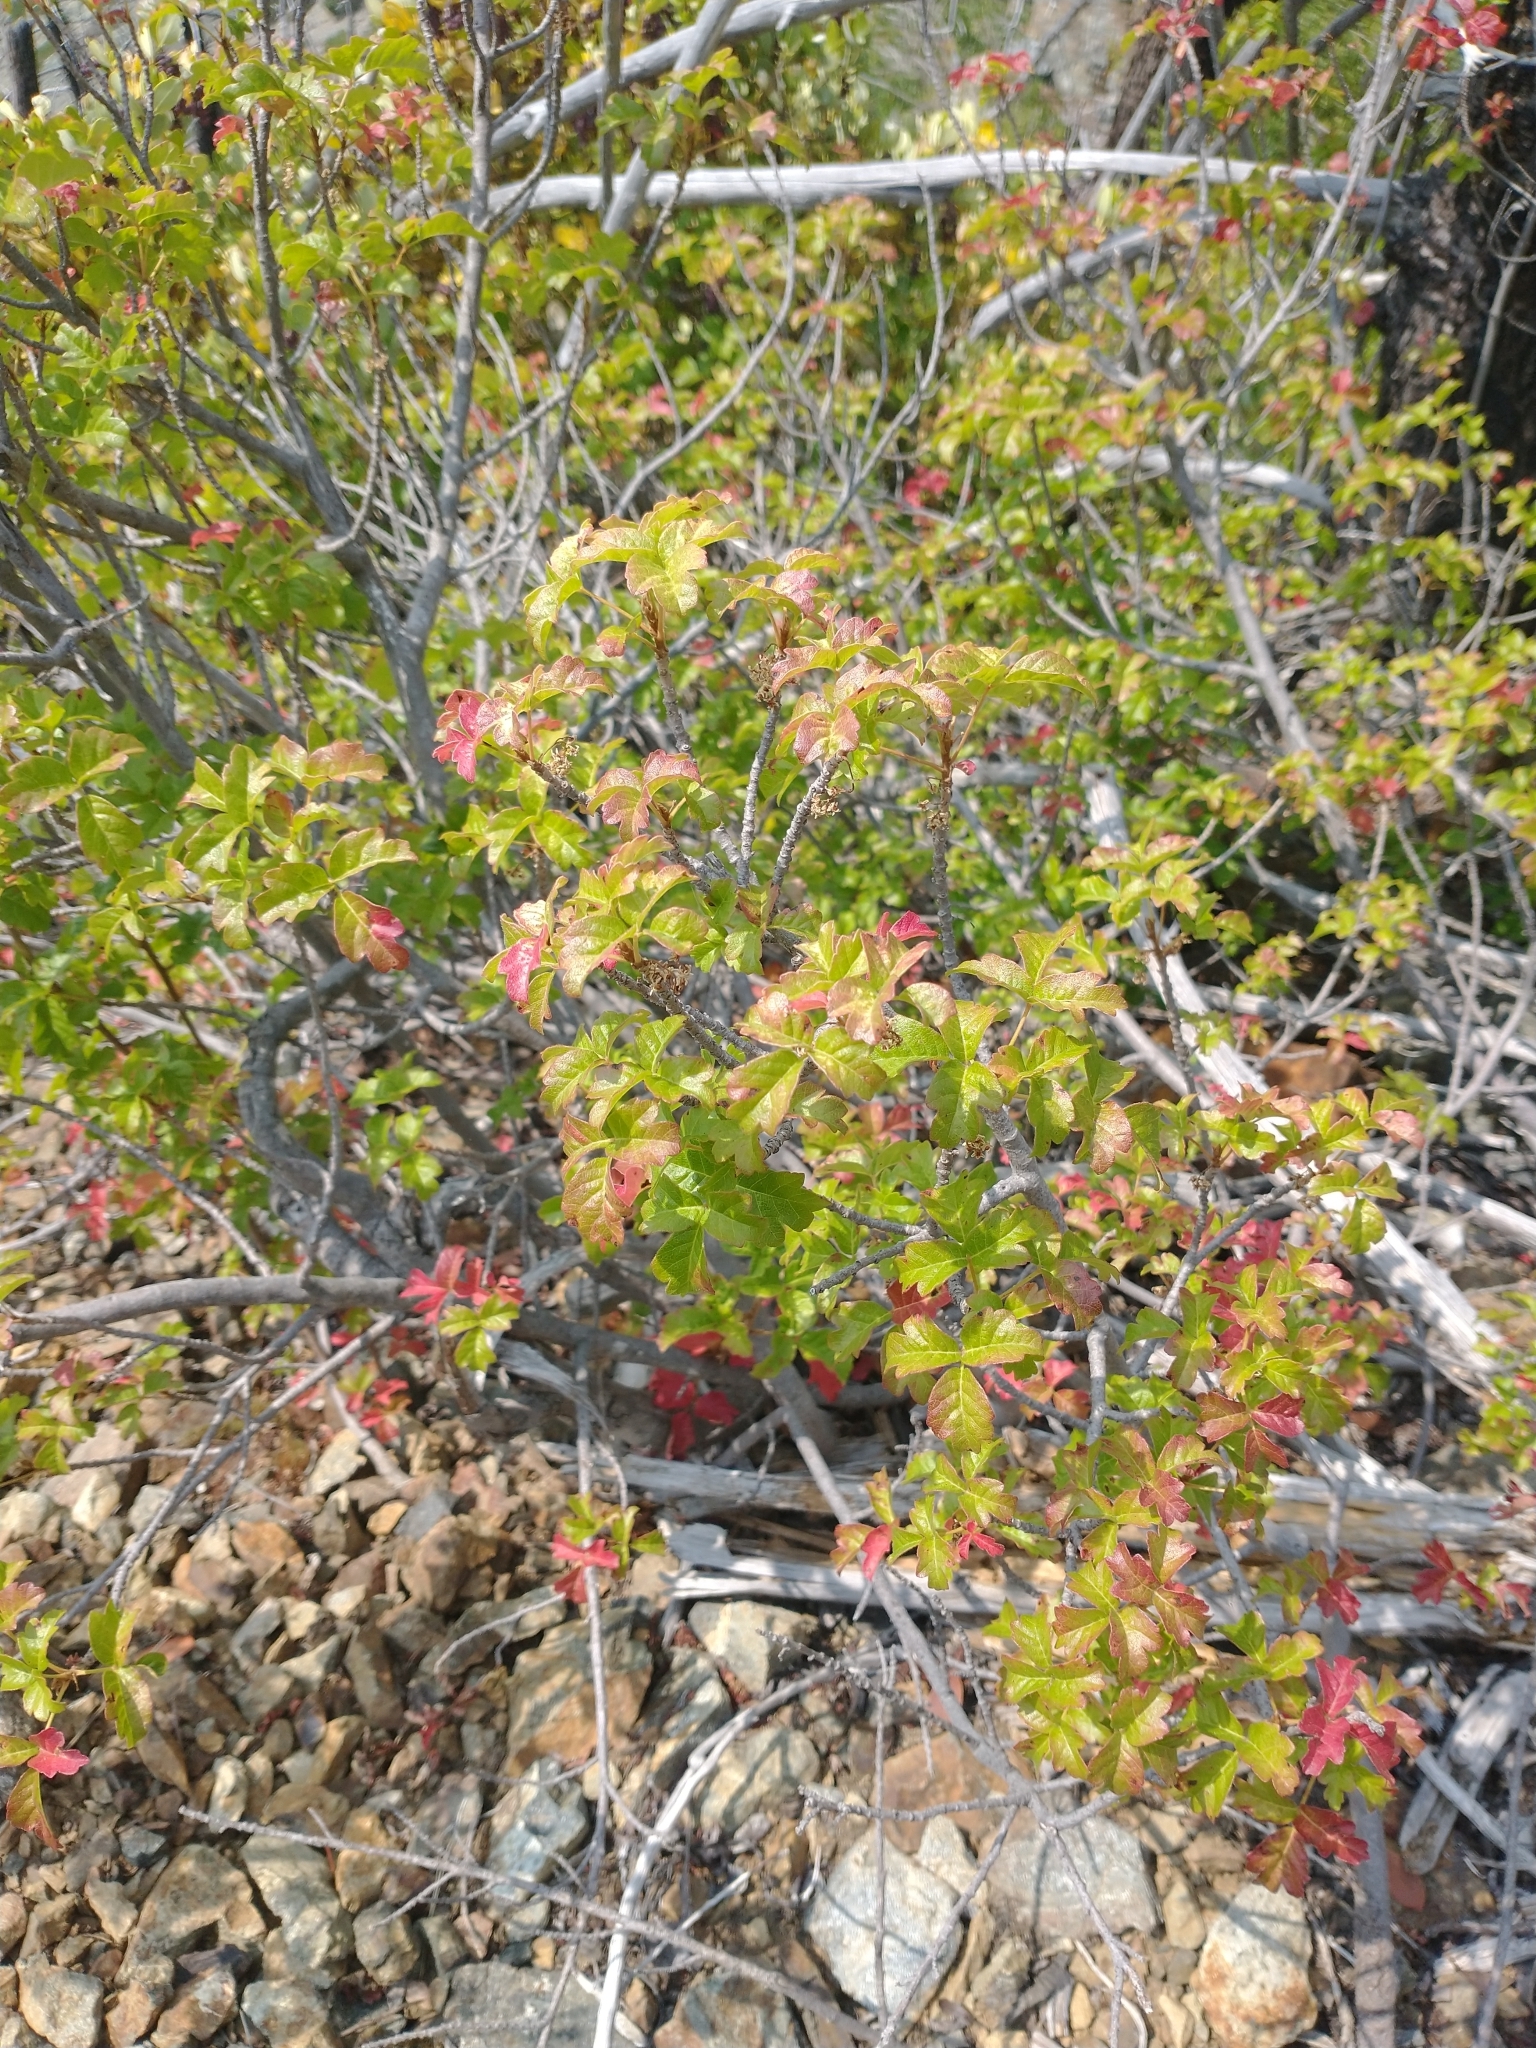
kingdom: Plantae
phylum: Tracheophyta
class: Magnoliopsida
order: Sapindales
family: Anacardiaceae
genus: Toxicodendron
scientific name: Toxicodendron diversilobum
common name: Pacific poison-oak
